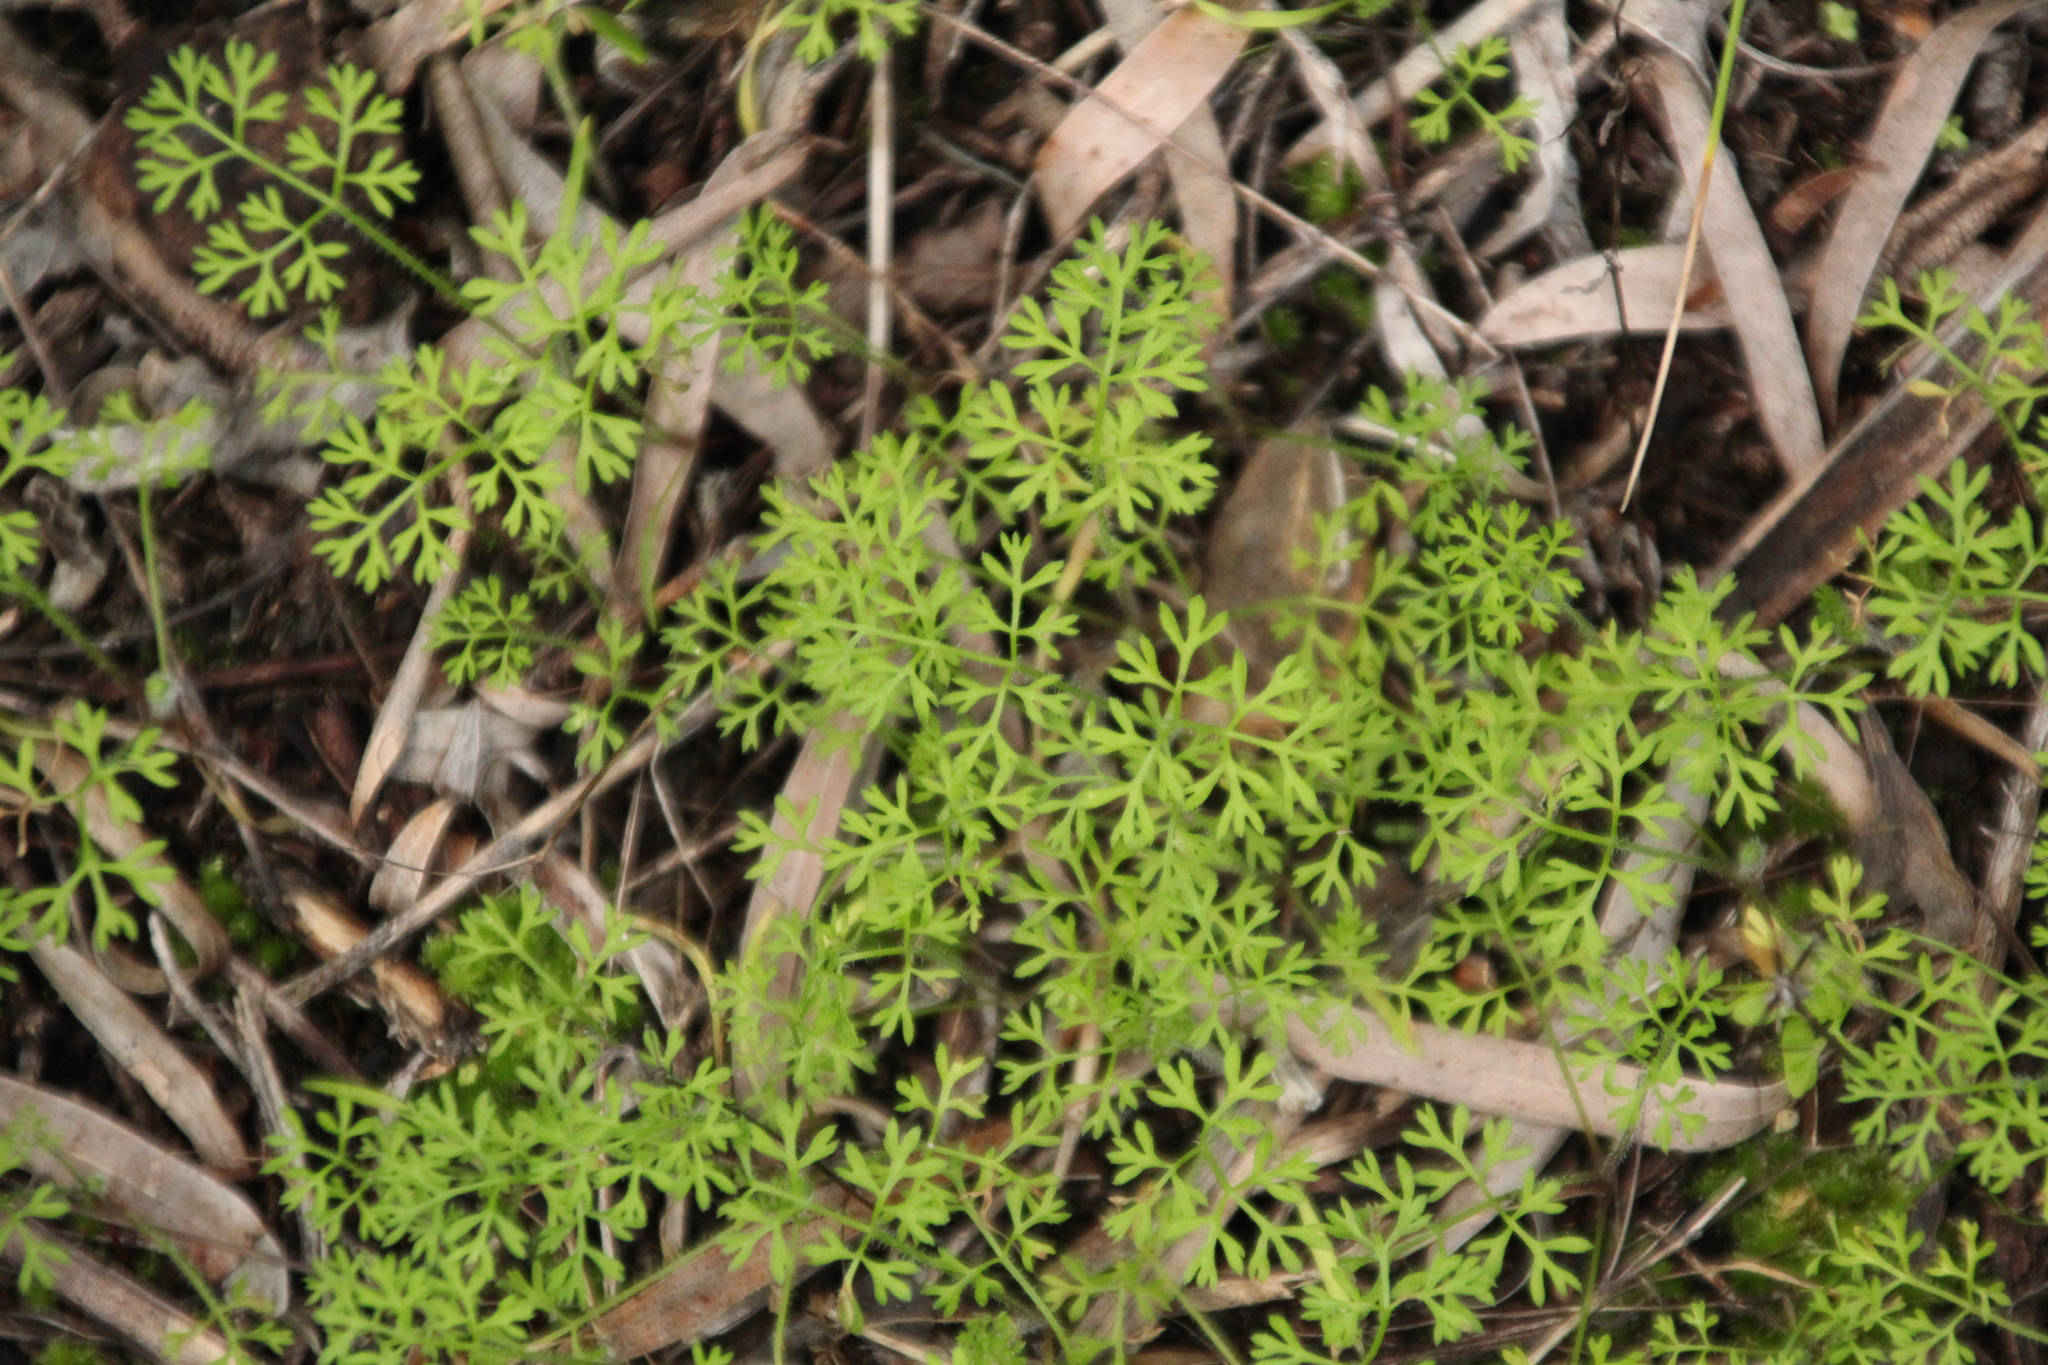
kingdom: Plantae
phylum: Tracheophyta
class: Magnoliopsida
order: Apiales
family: Apiaceae
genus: Daucus
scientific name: Daucus glochidiatus
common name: Australian carrot
